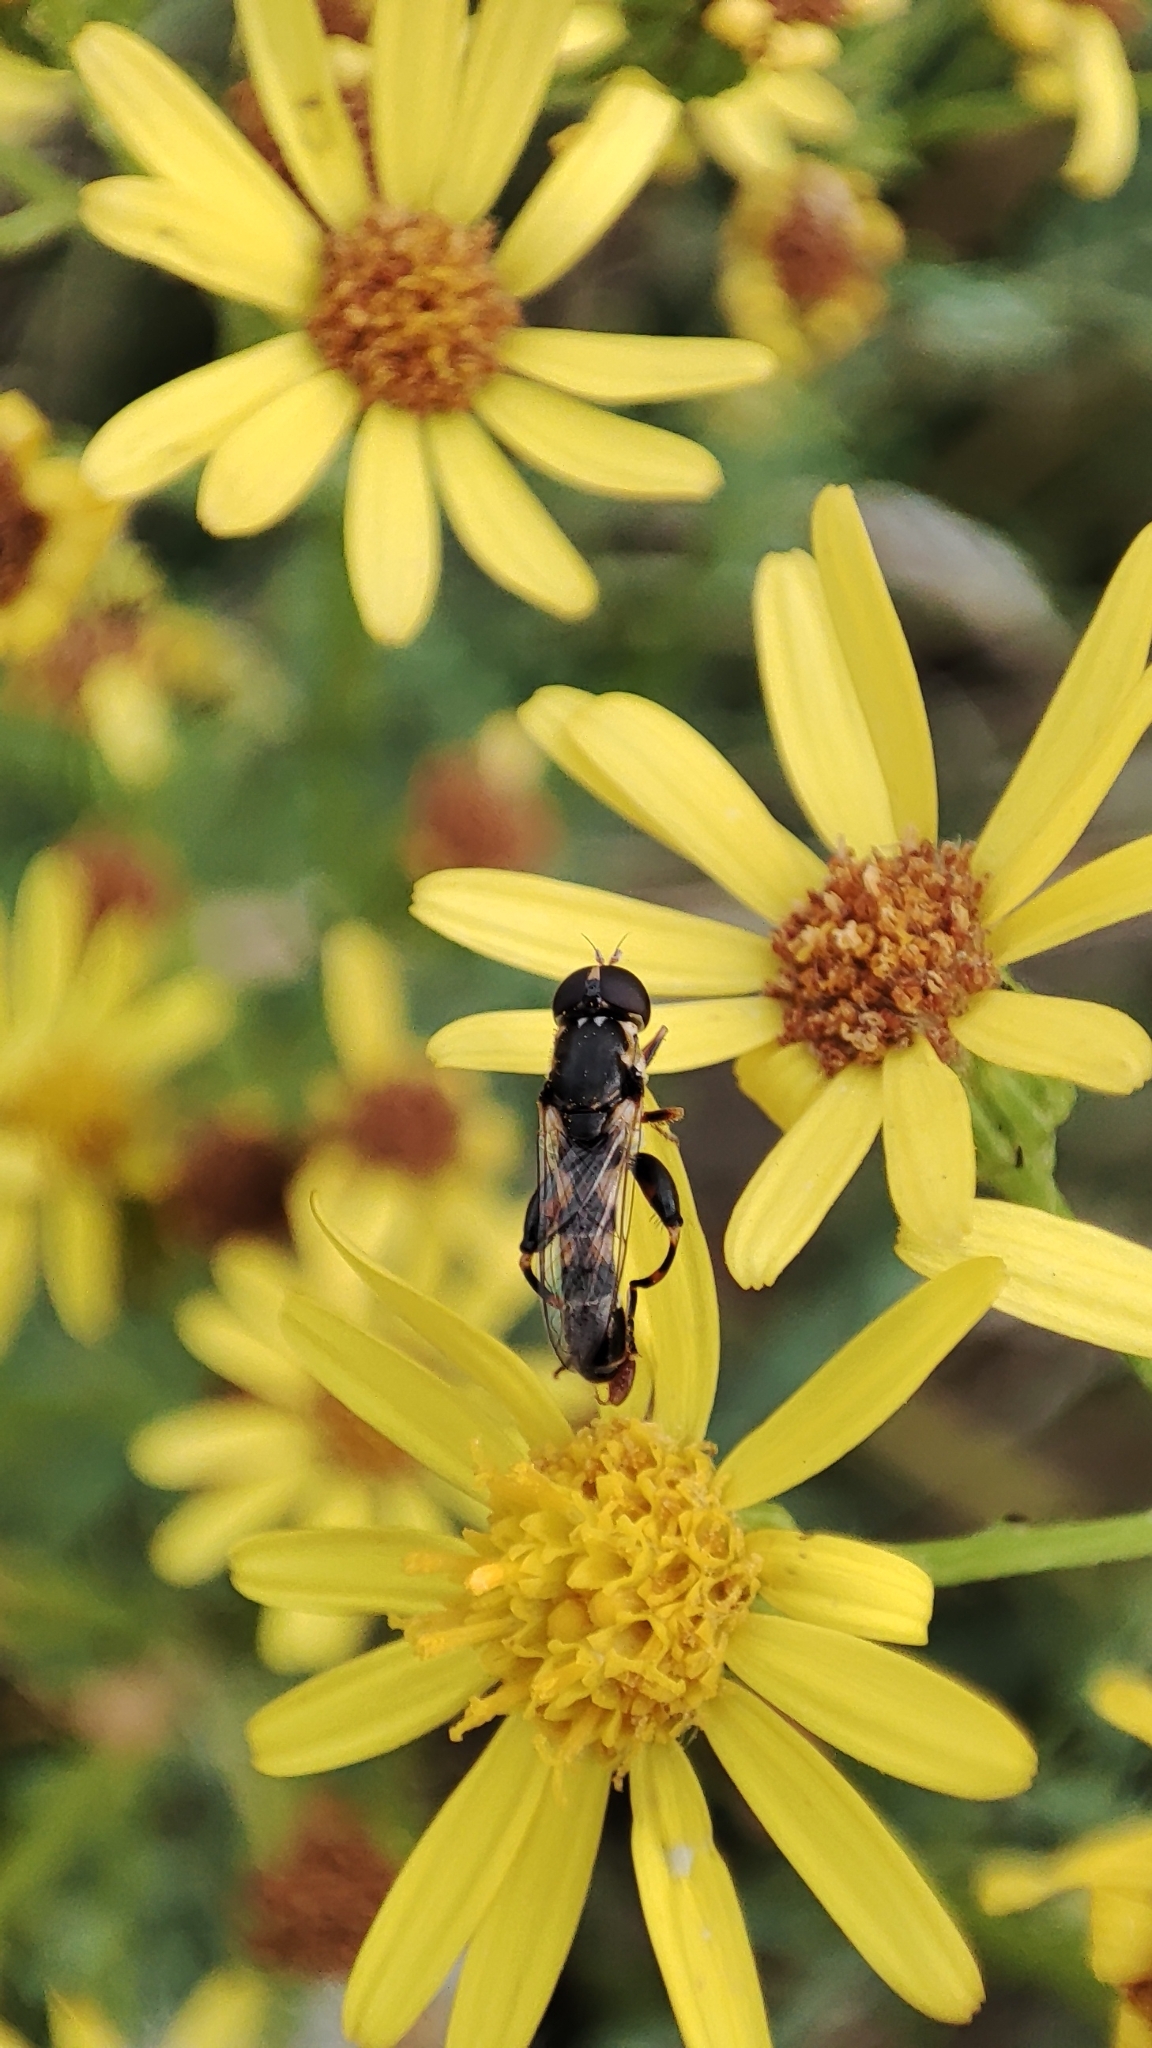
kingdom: Animalia
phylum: Arthropoda
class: Insecta
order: Diptera
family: Syrphidae
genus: Syritta
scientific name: Syritta pipiens
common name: Hover fly
